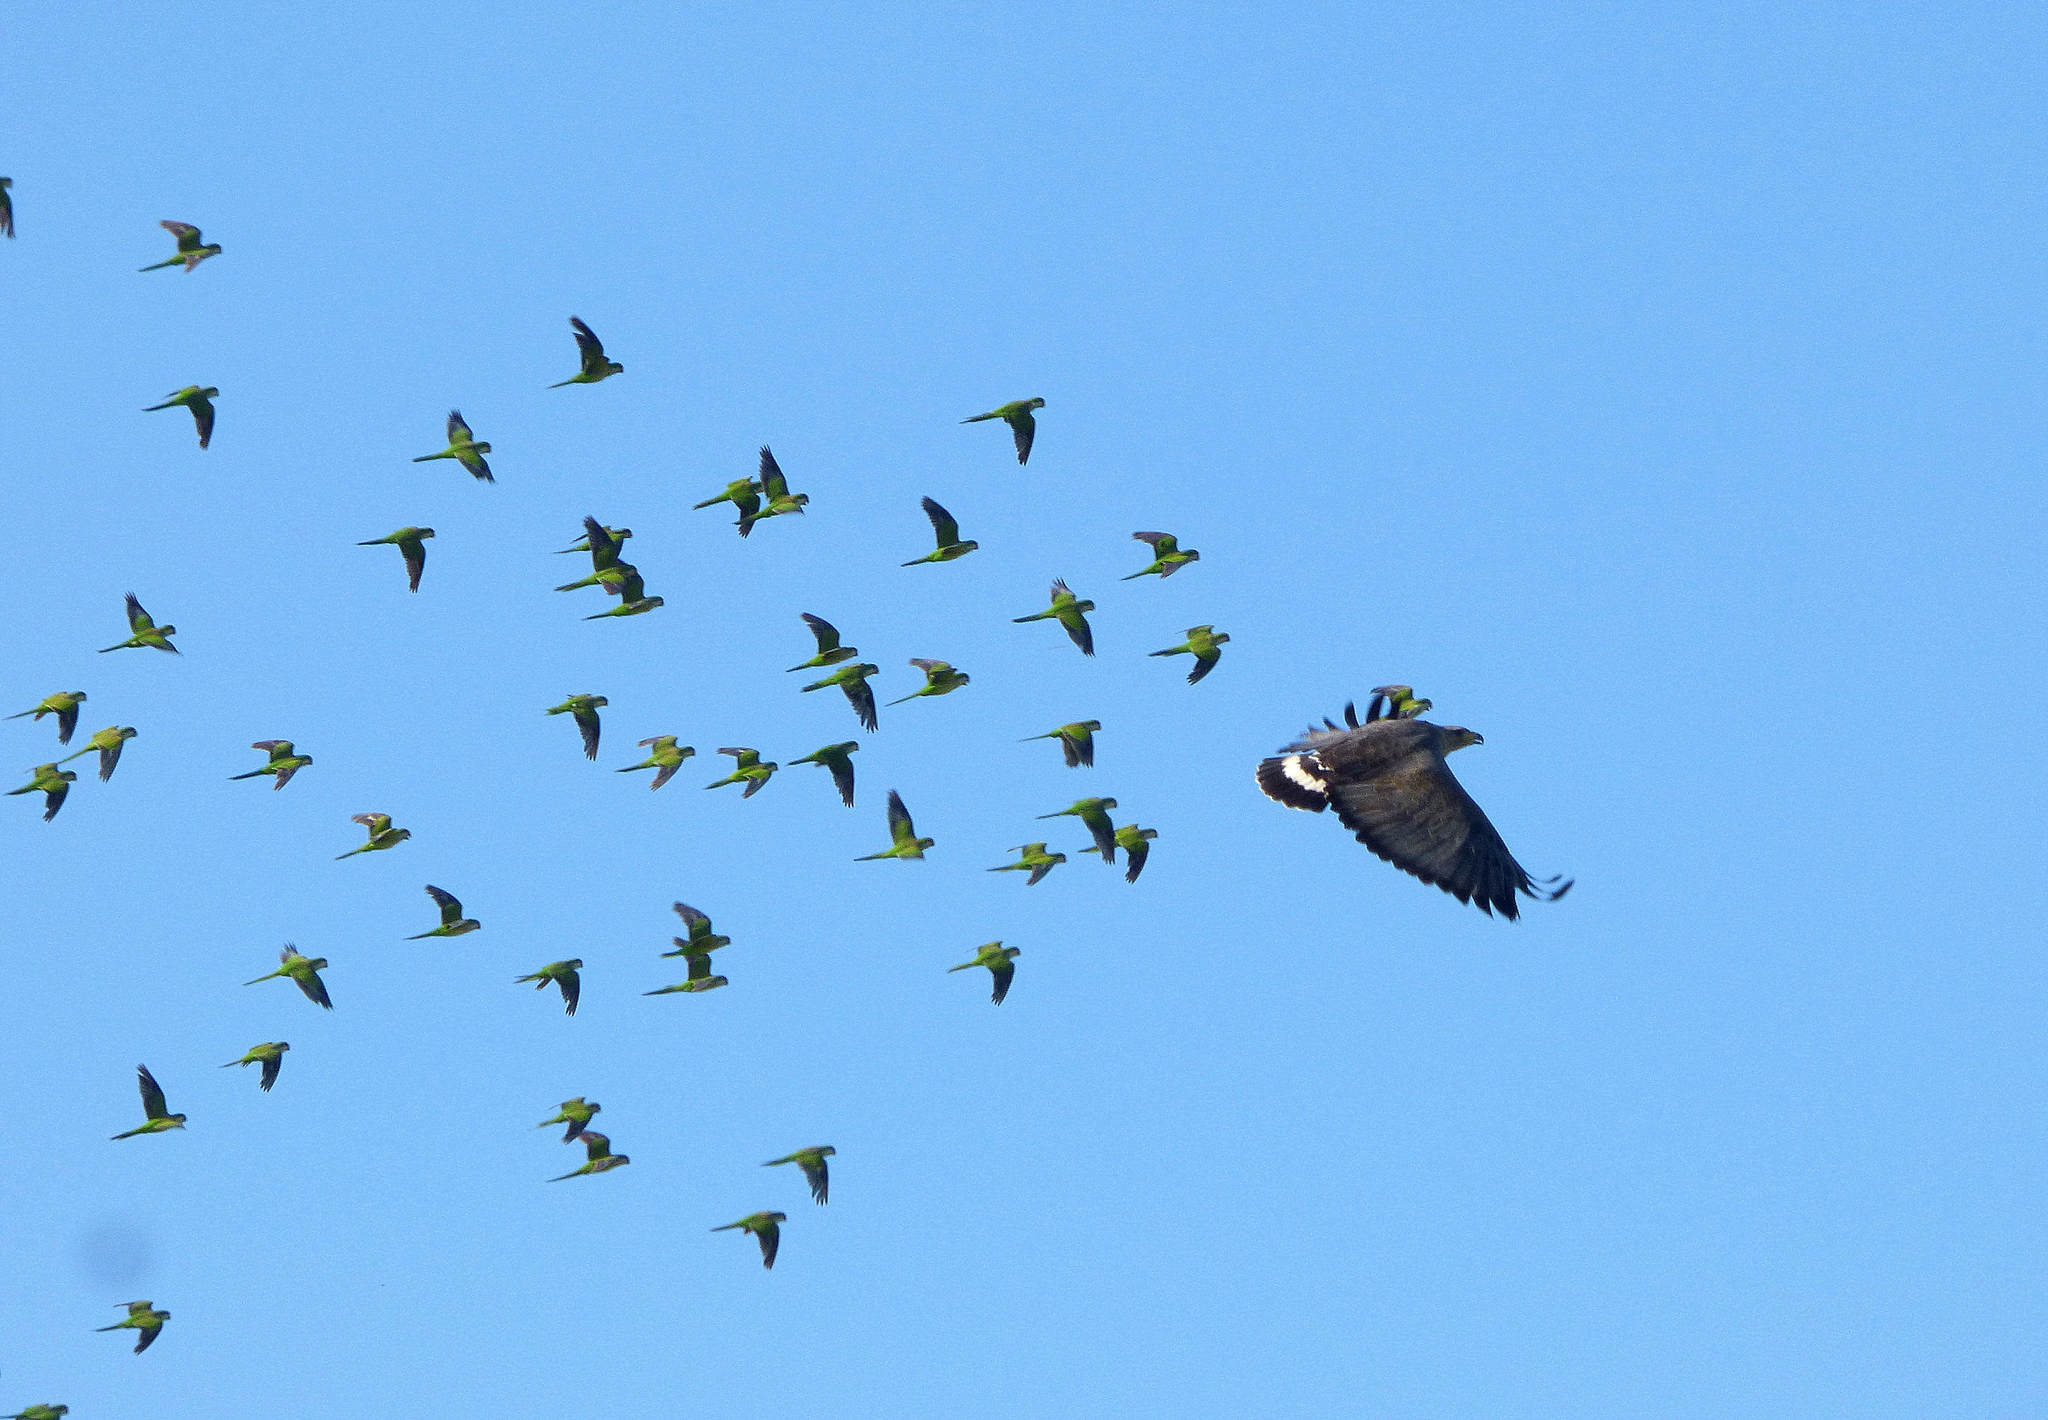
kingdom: Animalia
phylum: Chordata
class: Aves
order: Accipitriformes
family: Accipitridae
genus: Harpyhaliaetus
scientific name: Harpyhaliaetus coronatus
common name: Crowned solitary eagle
